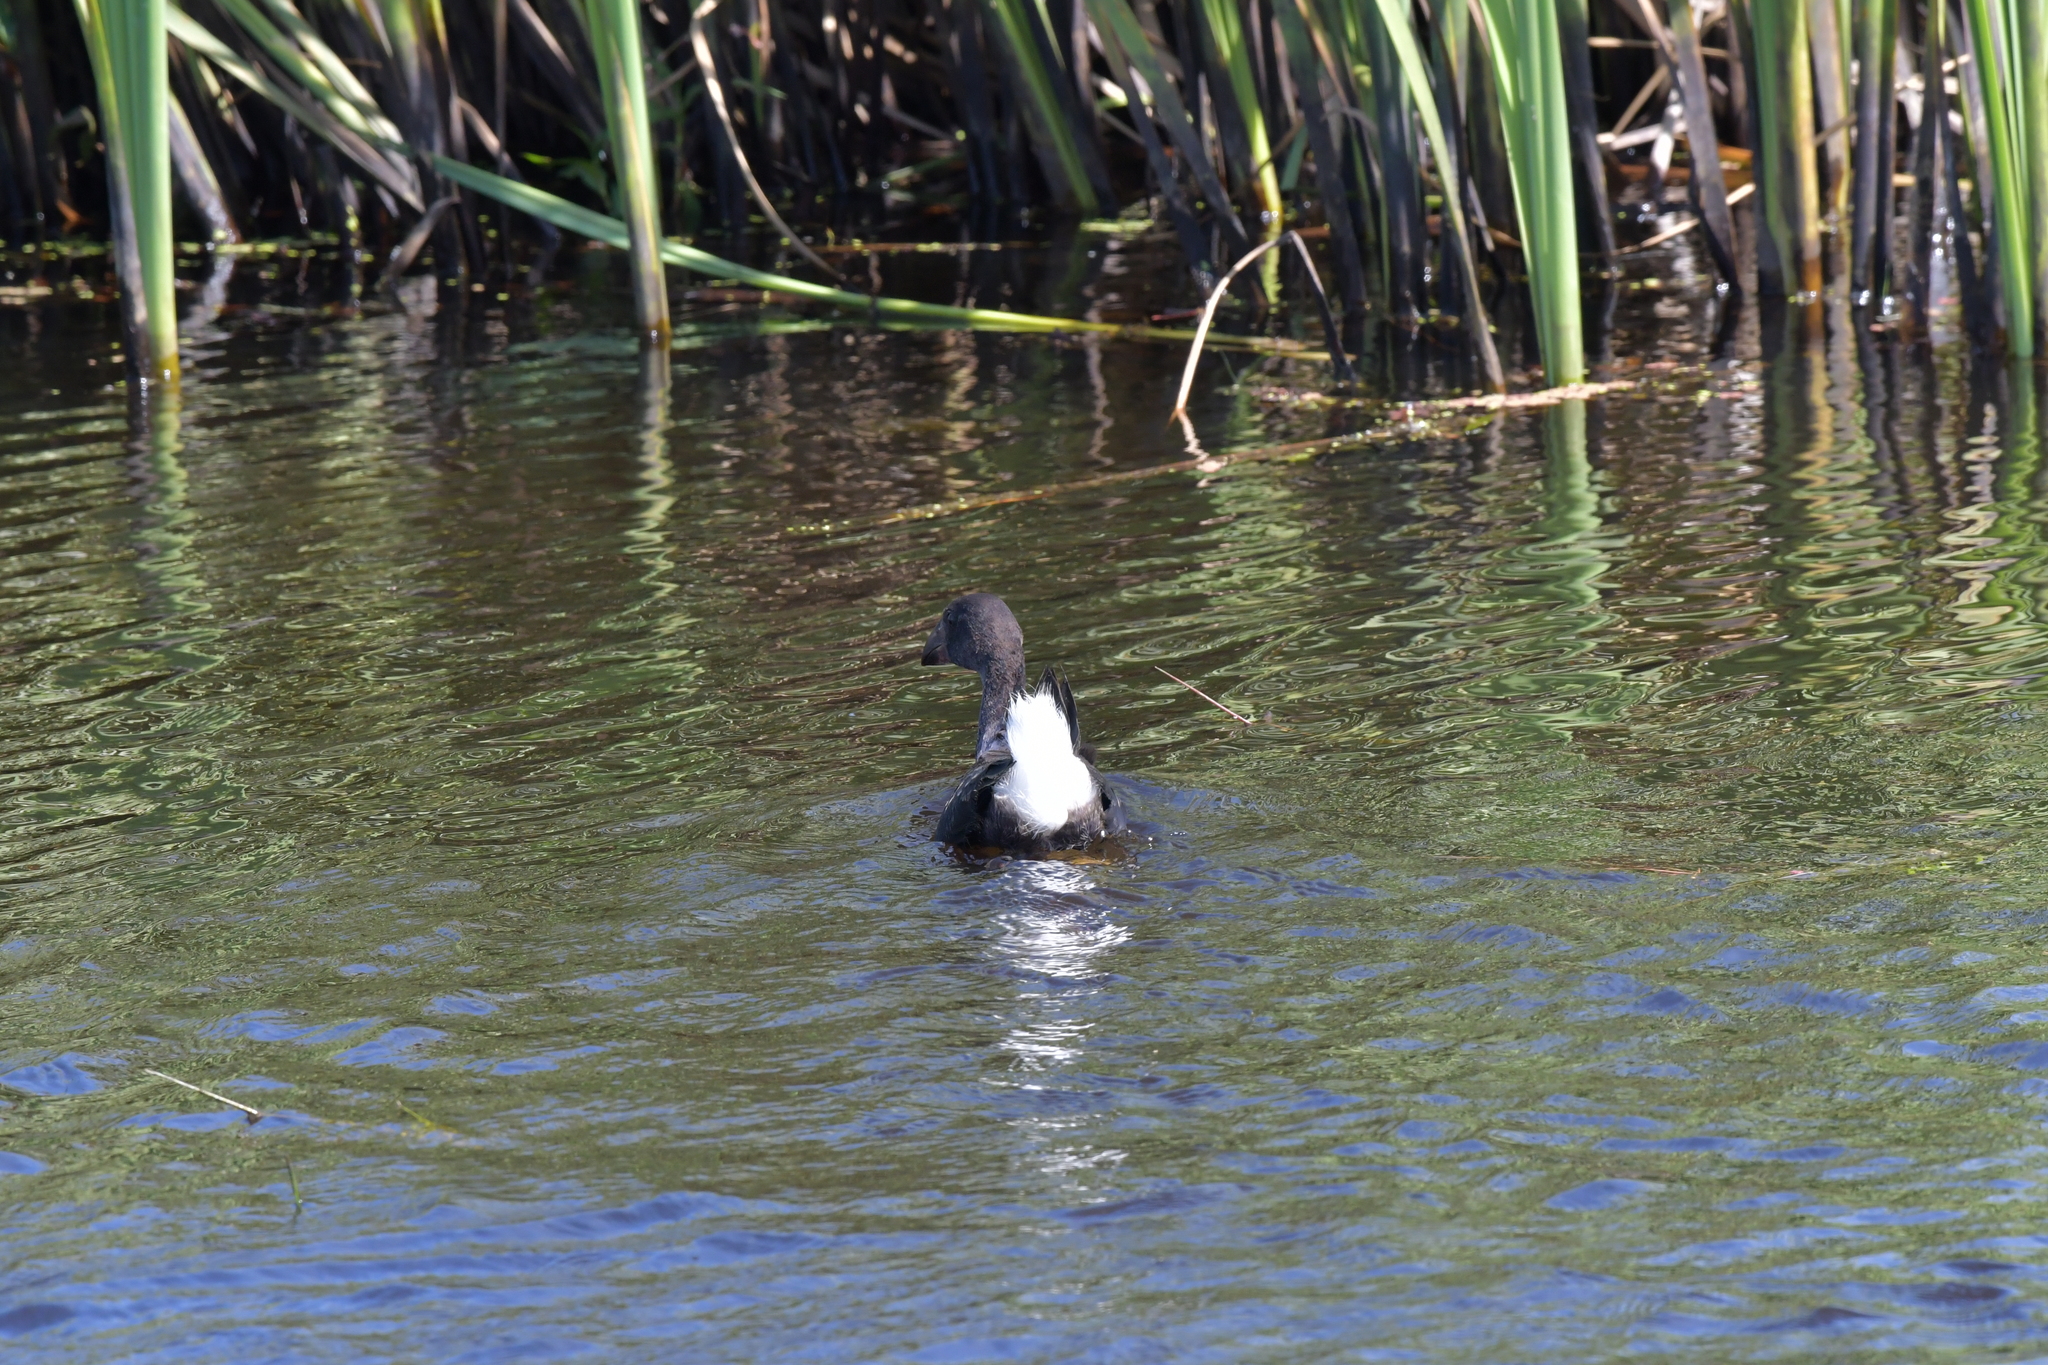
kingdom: Animalia
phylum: Chordata
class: Aves
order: Gruiformes
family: Rallidae
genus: Porphyrio
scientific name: Porphyrio melanotus
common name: Australasian swamphen
